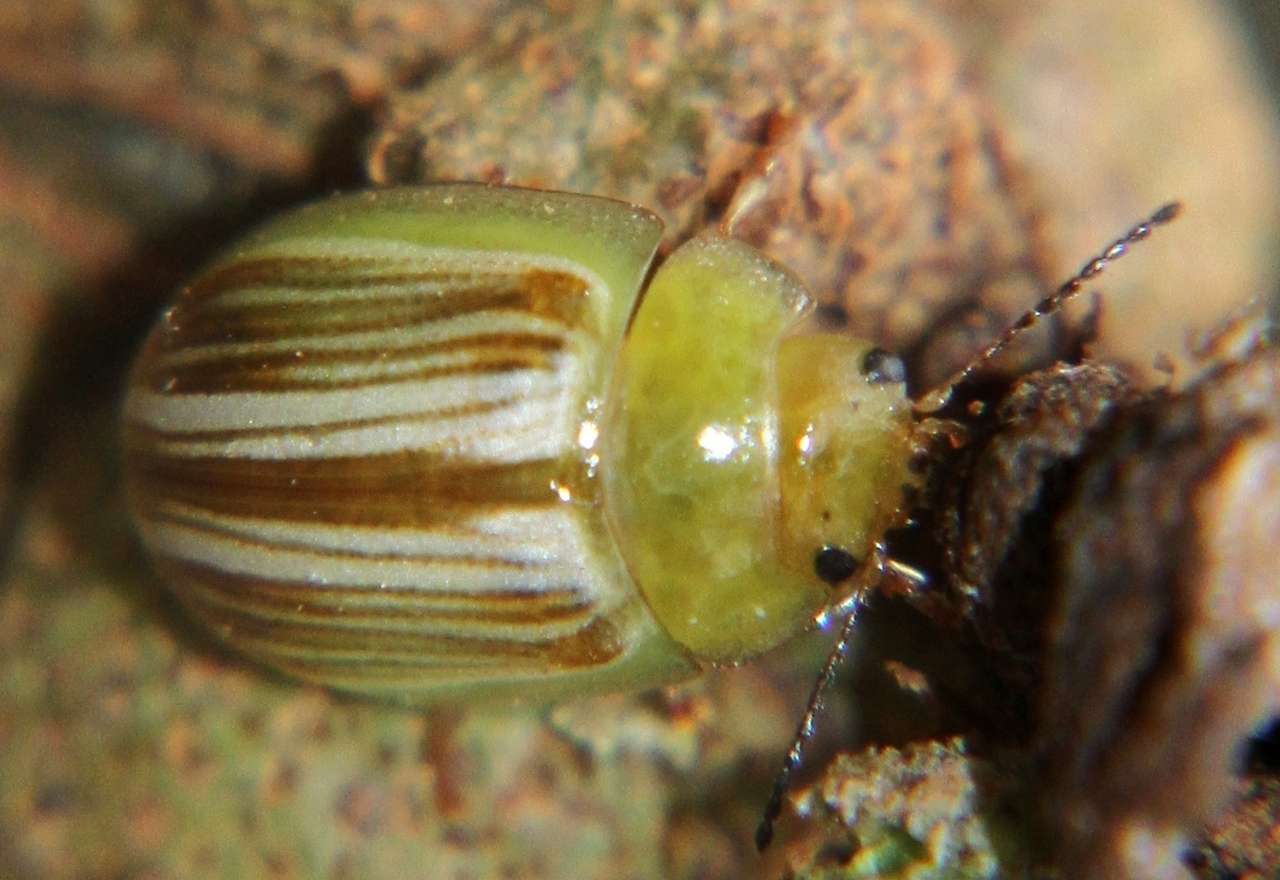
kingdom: Animalia
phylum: Arthropoda
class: Insecta
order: Coleoptera
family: Chrysomelidae
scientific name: Chrysomelidae
